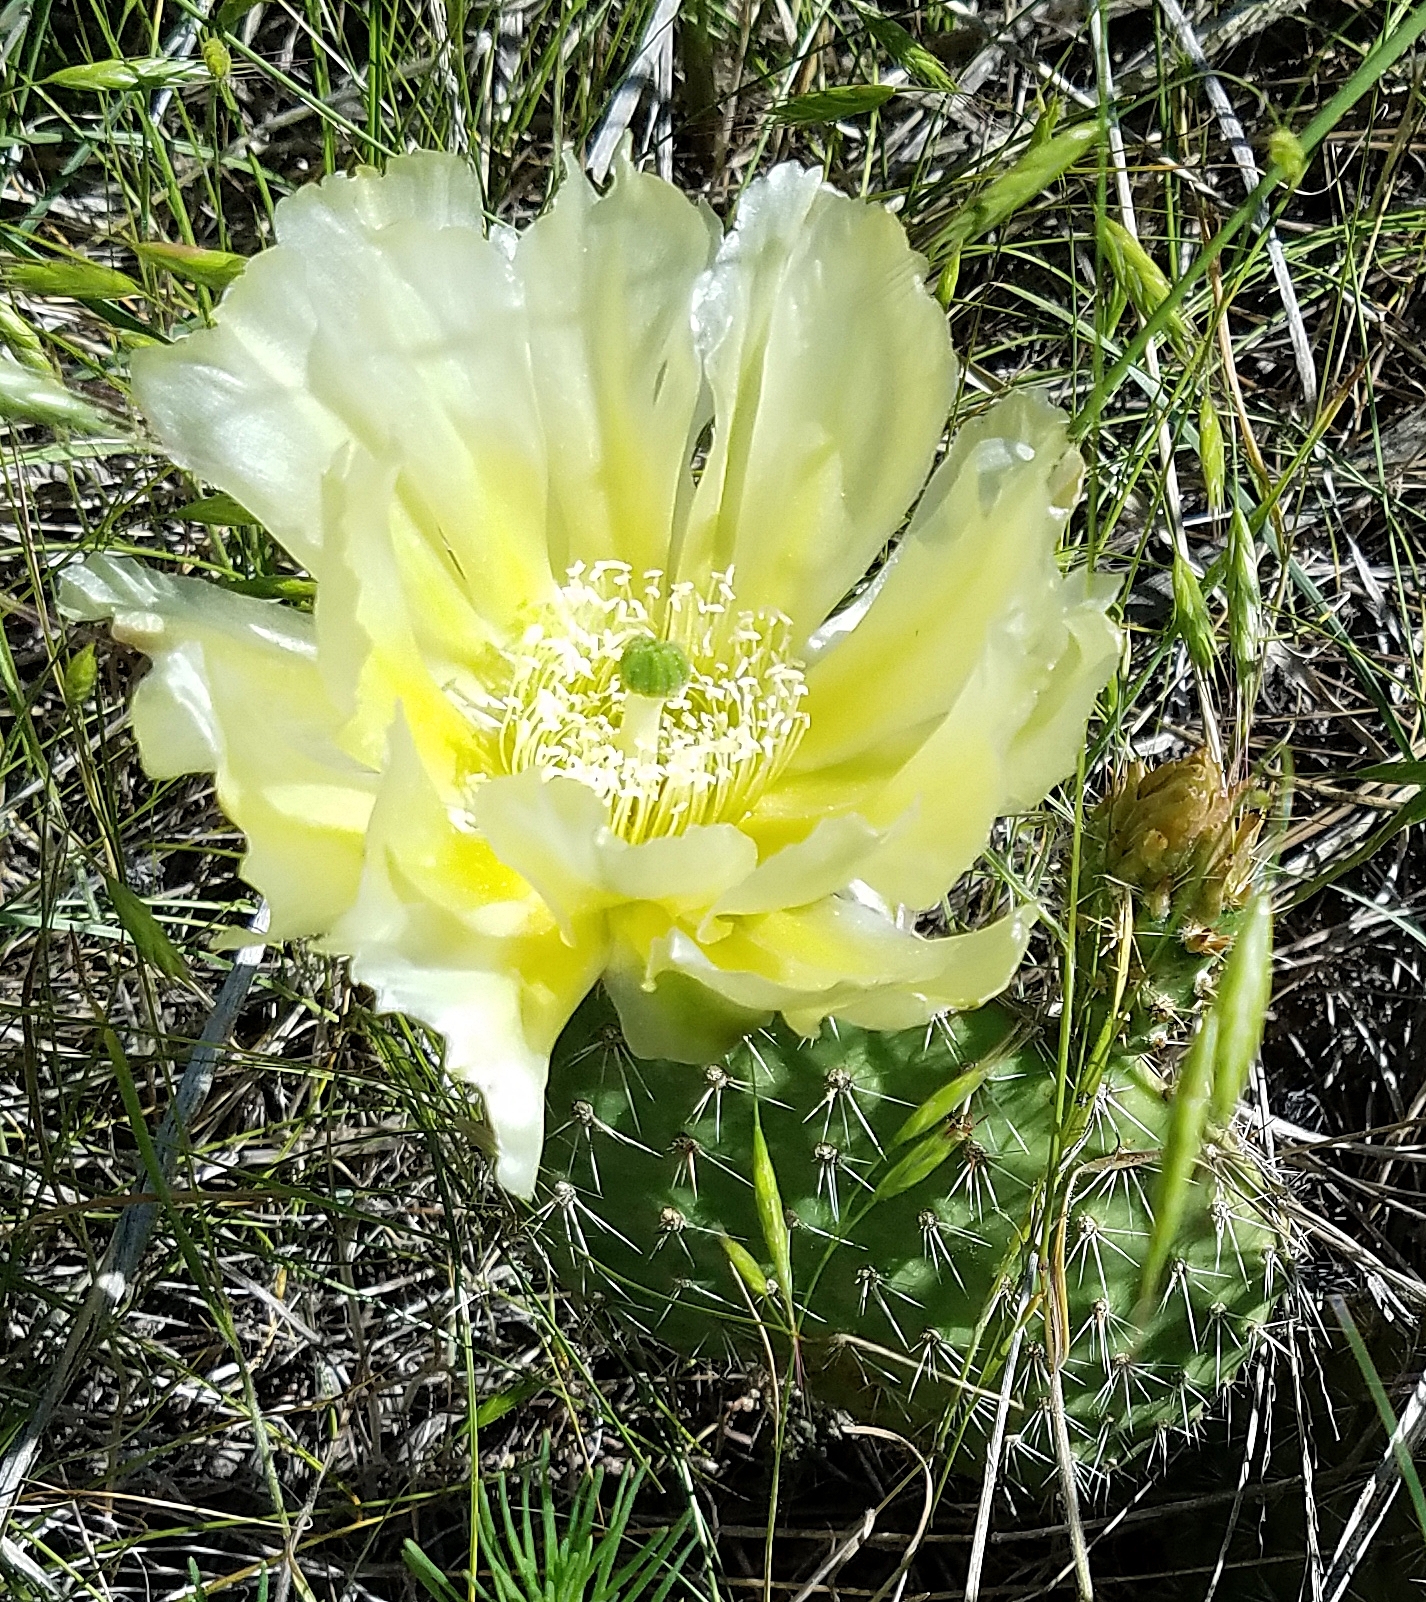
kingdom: Plantae
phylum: Tracheophyta
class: Magnoliopsida
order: Caryophyllales
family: Cactaceae
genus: Opuntia
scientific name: Opuntia polyacantha
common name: Plains prickly-pear
